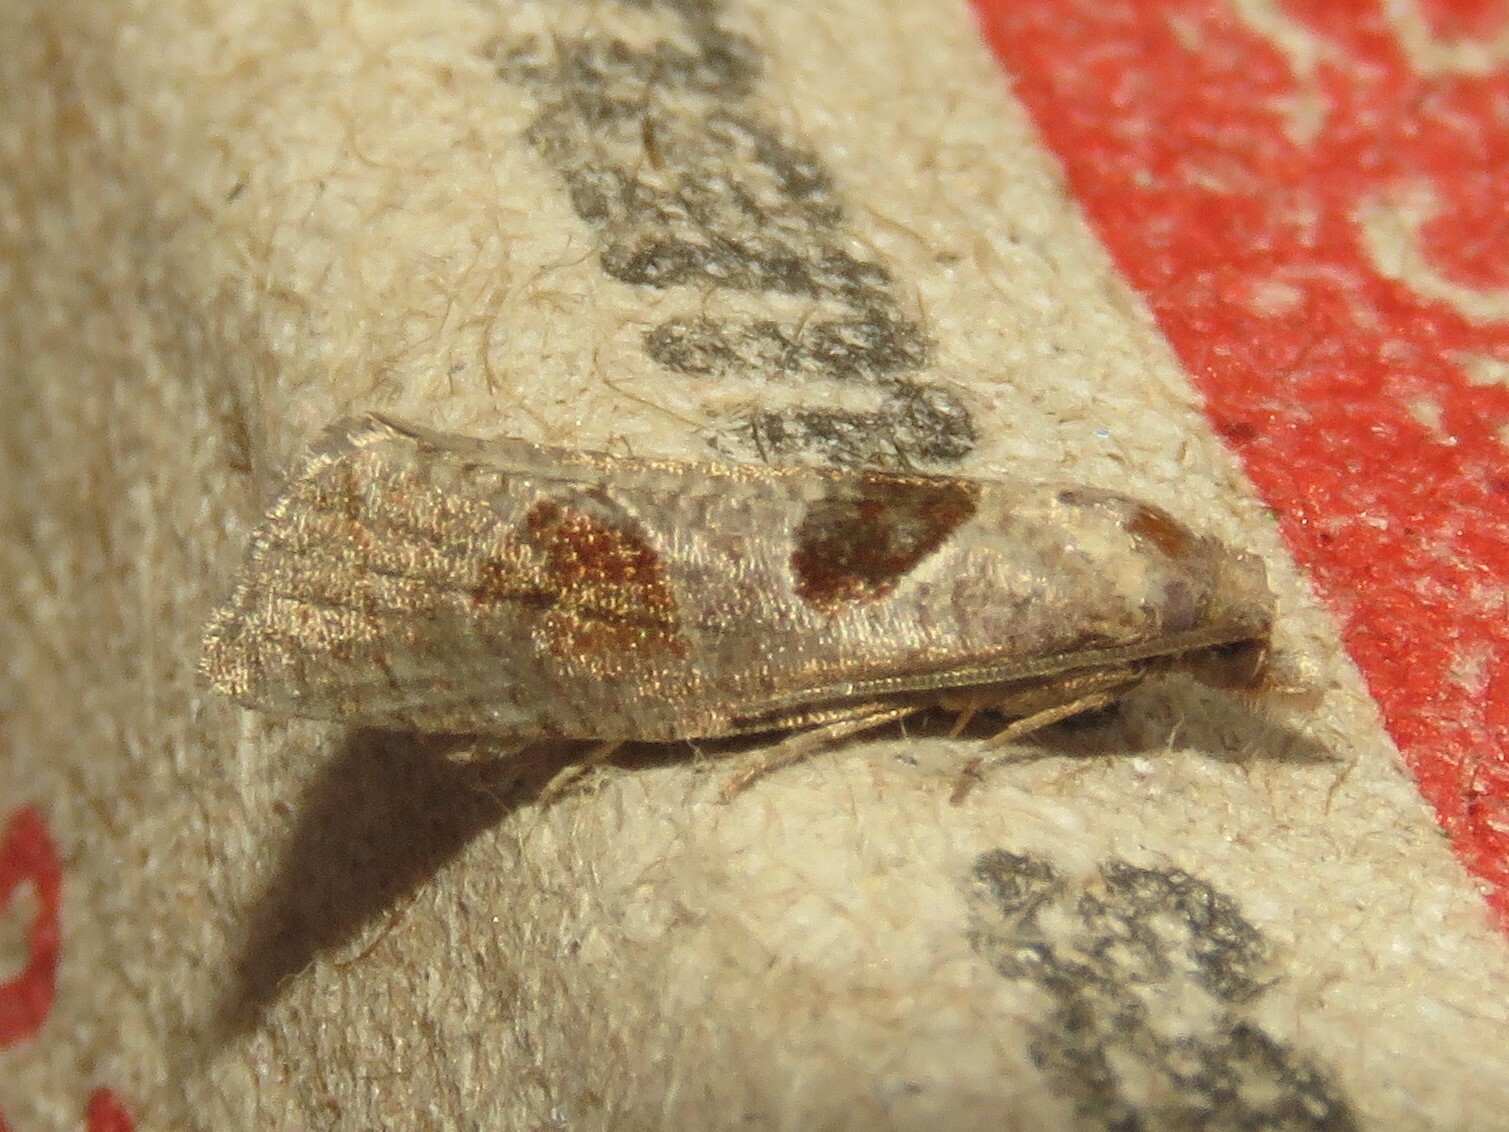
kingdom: Animalia
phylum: Arthropoda
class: Insecta
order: Lepidoptera
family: Tortricidae
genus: Pelochrista
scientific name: Pelochrista dorsisignatana
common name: Triangle-backed pelochrista moth
